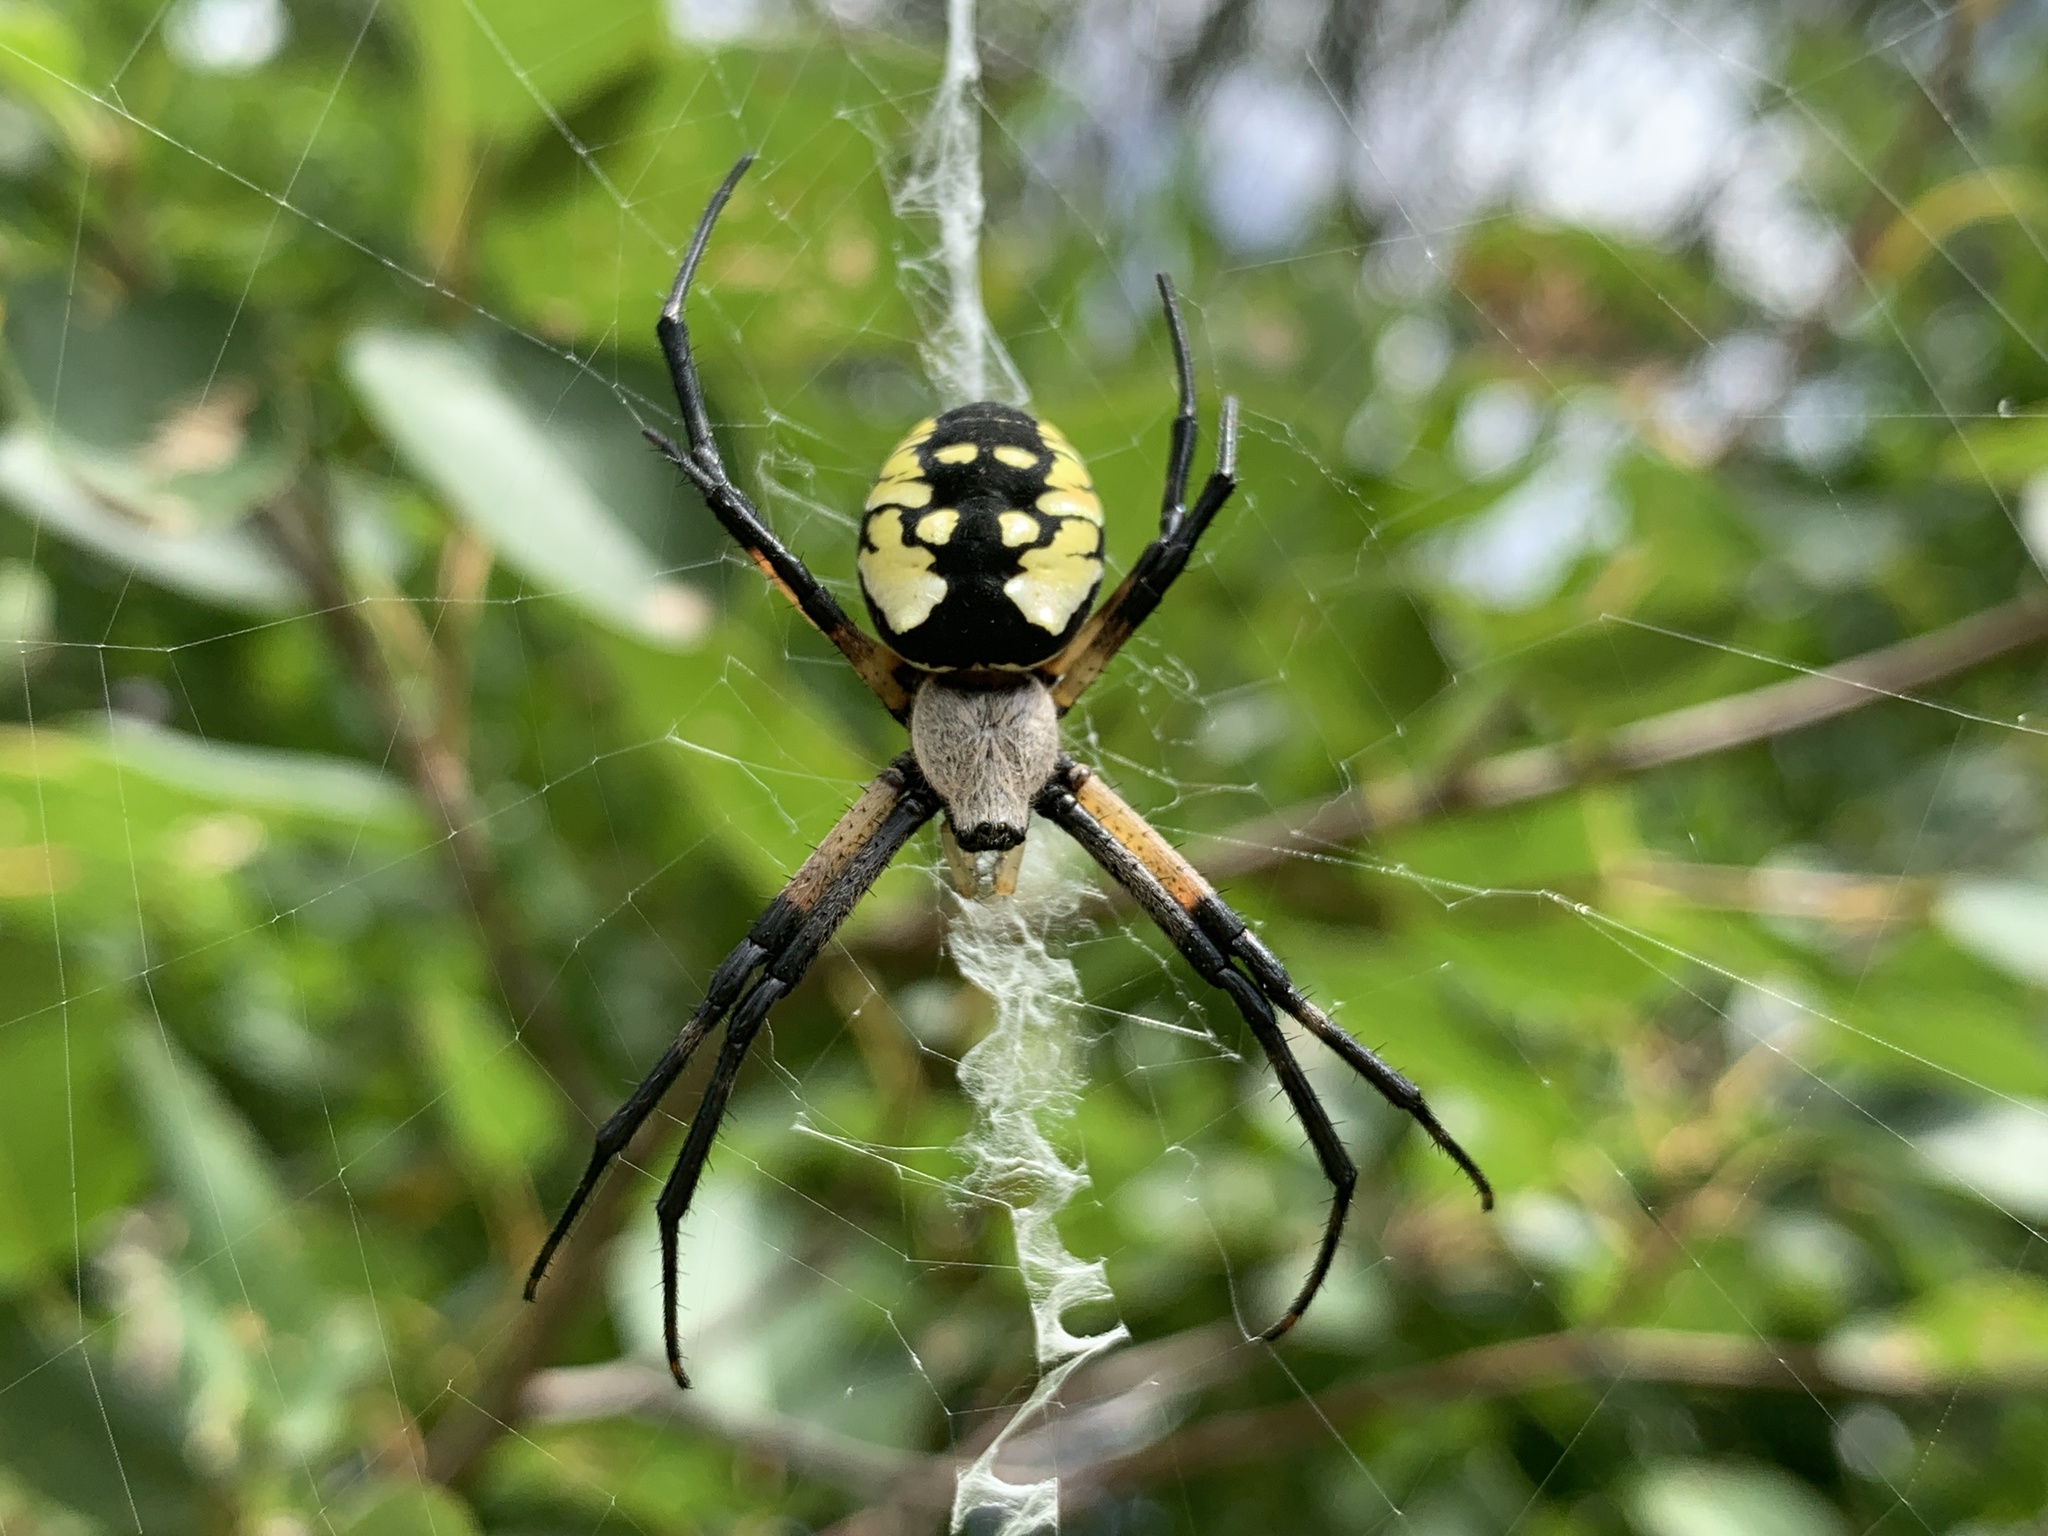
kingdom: Animalia
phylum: Arthropoda
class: Arachnida
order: Araneae
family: Araneidae
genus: Argiope
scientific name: Argiope aurantia
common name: Orb weavers
